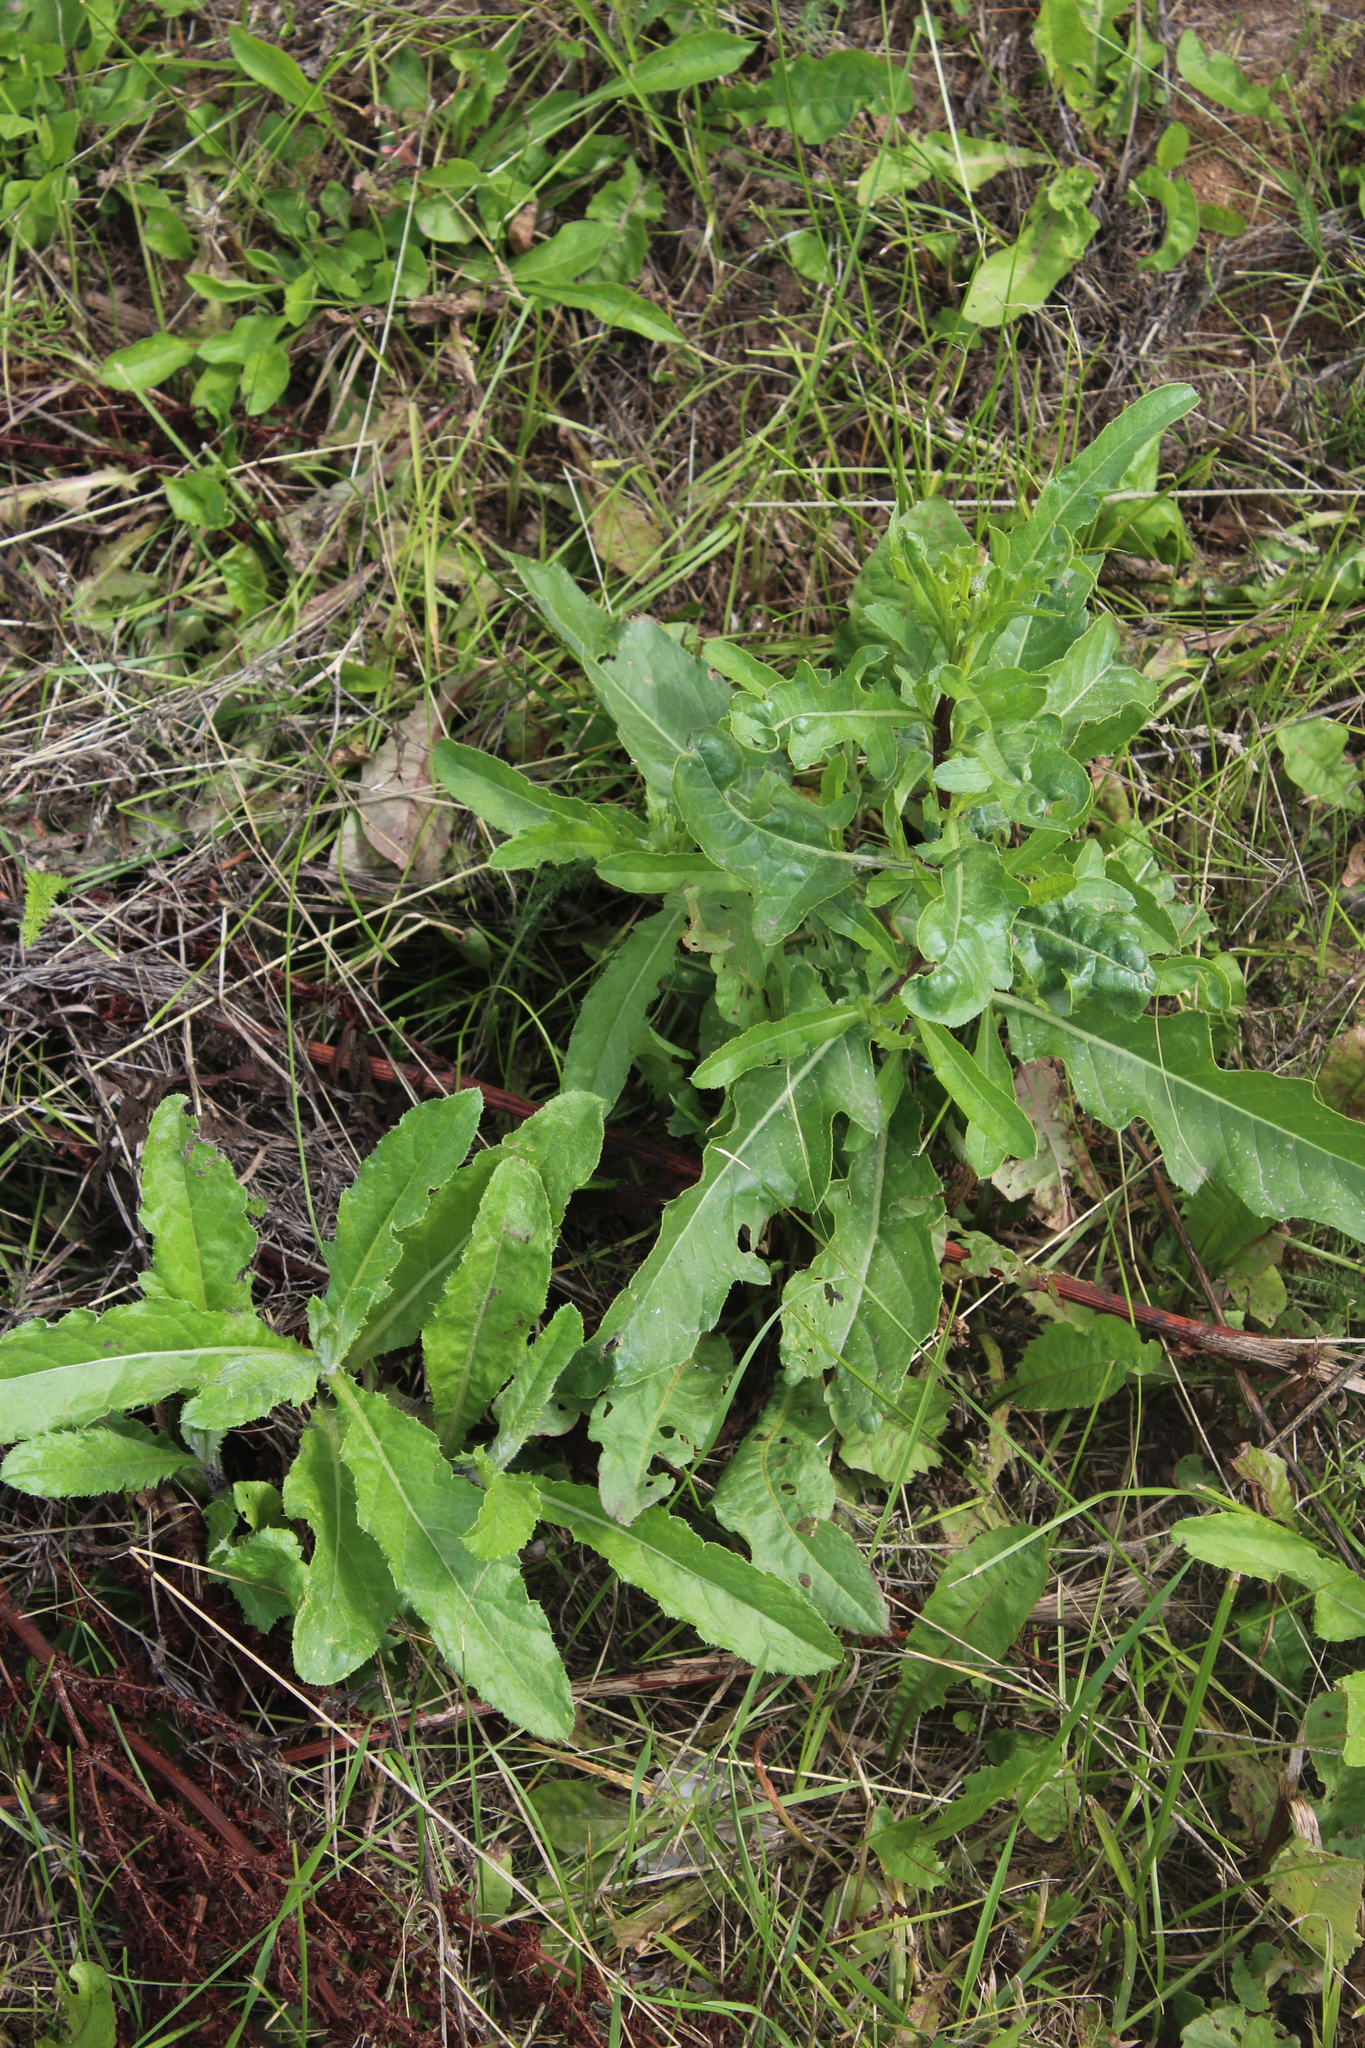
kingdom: Plantae
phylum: Tracheophyta
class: Magnoliopsida
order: Asterales
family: Asteraceae
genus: Cirsium
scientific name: Cirsium arvense
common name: Creeping thistle
